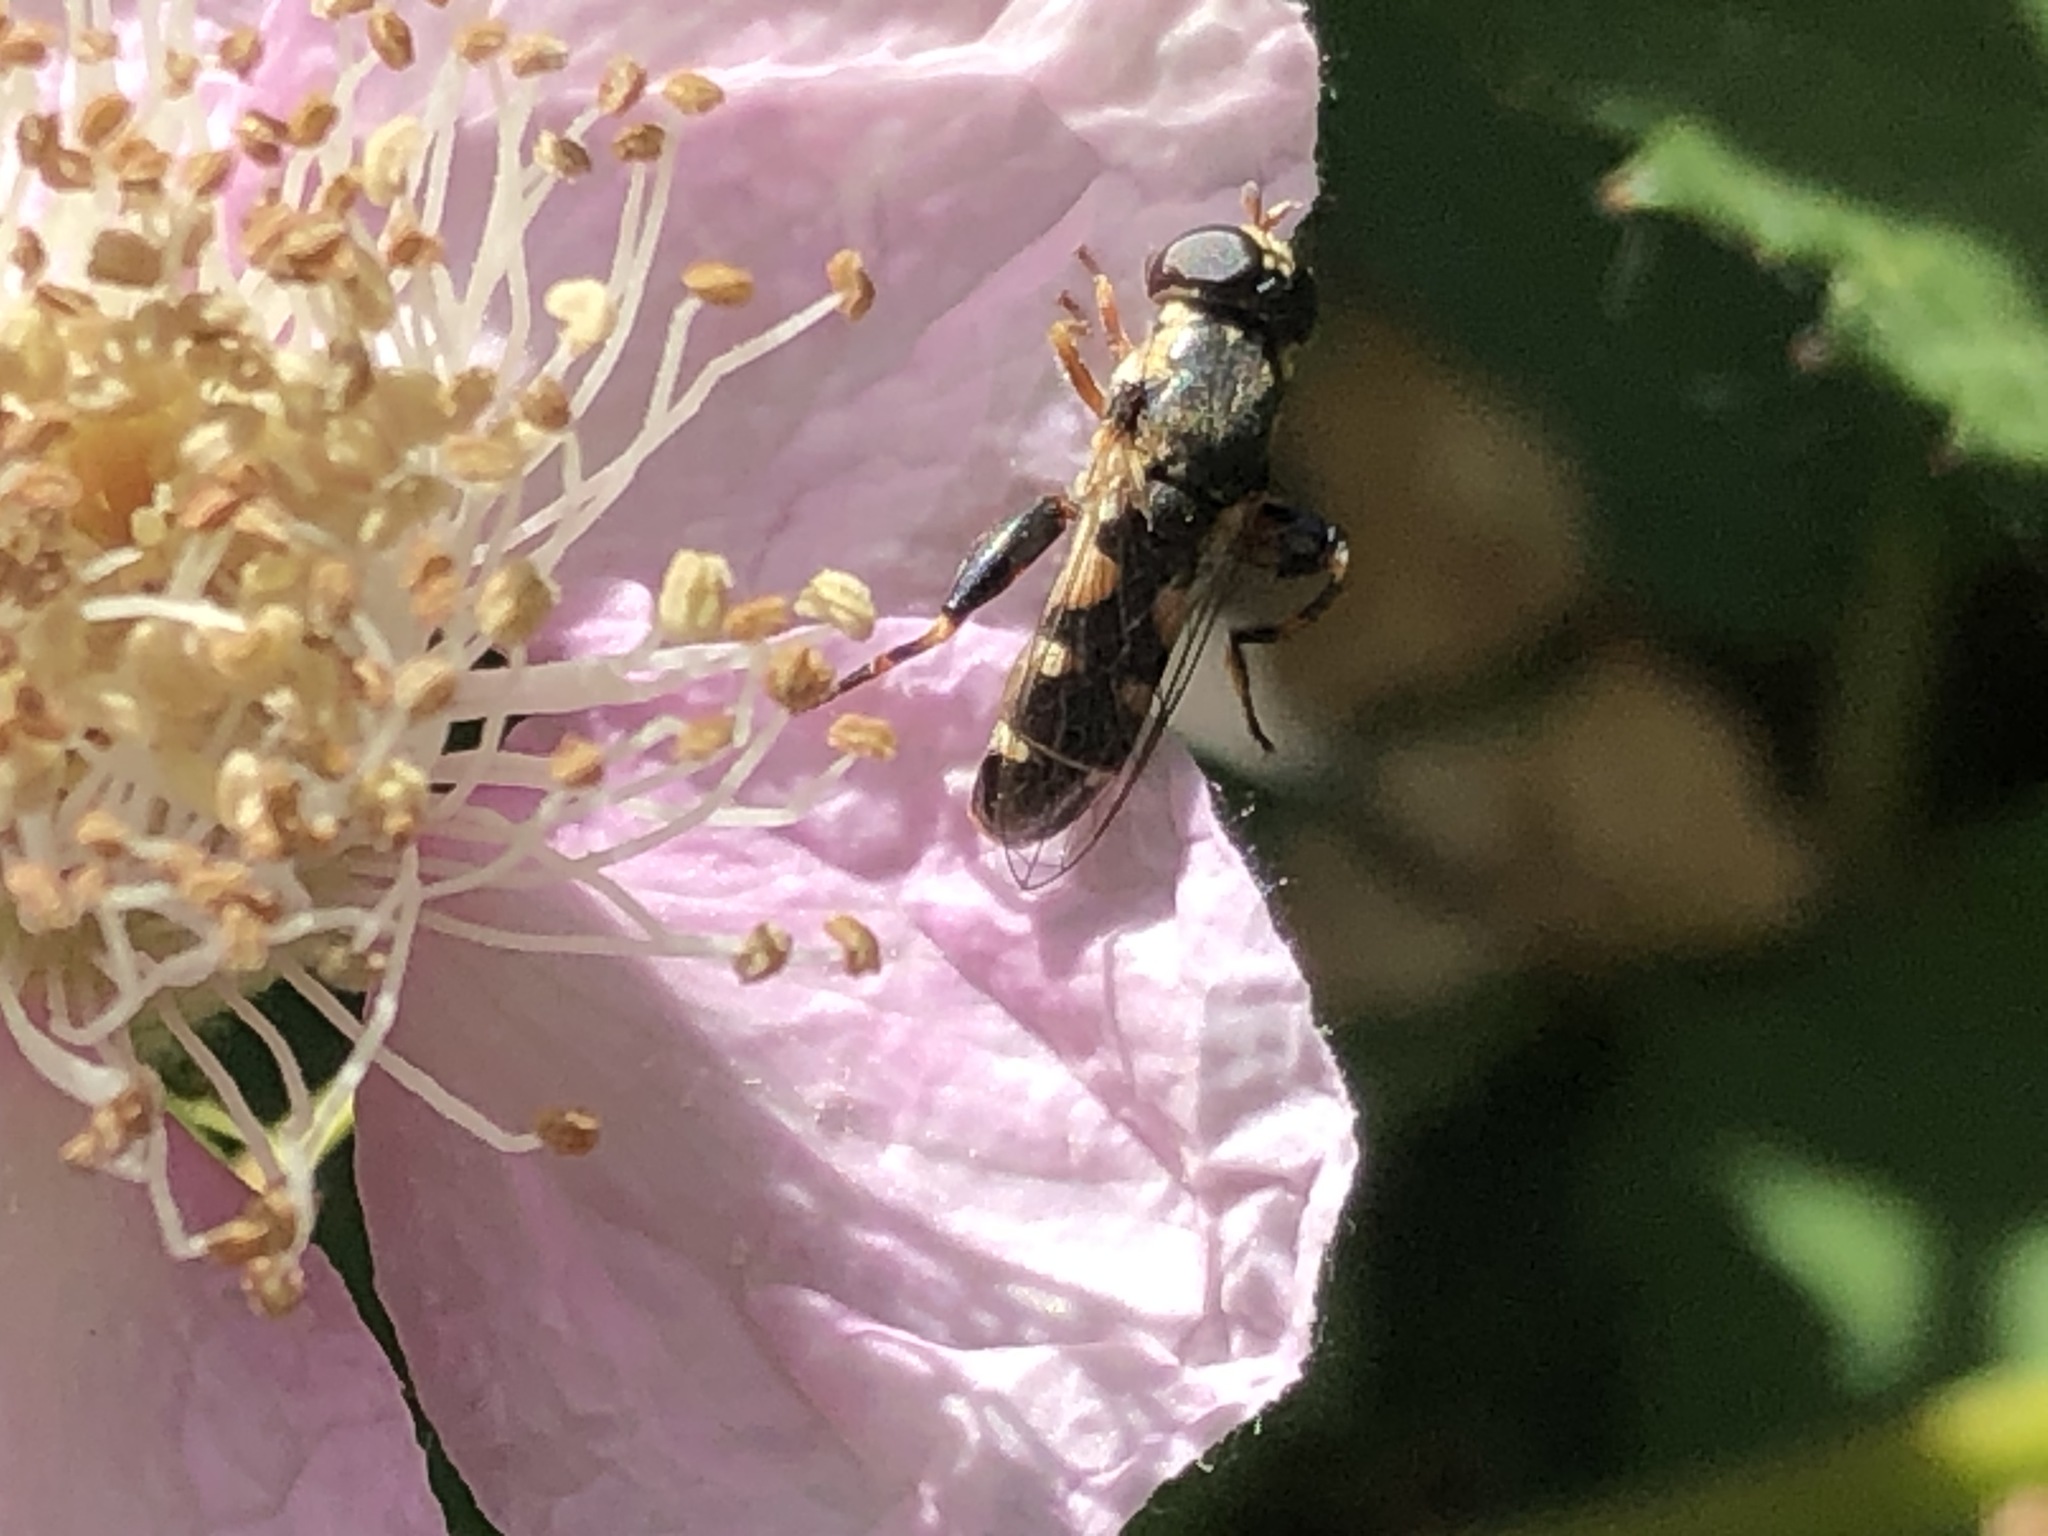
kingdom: Animalia
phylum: Arthropoda
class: Insecta
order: Diptera
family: Syrphidae
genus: Syritta
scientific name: Syritta pipiens
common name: Hover fly
